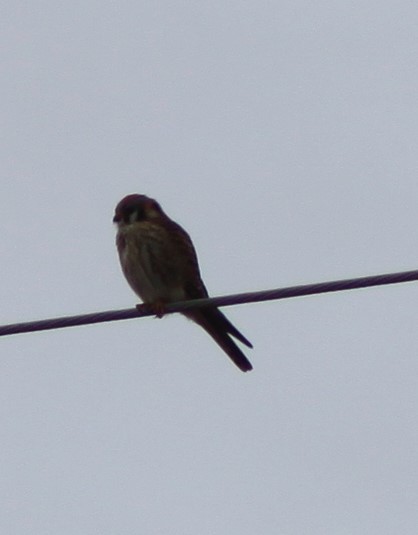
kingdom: Animalia
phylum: Chordata
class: Aves
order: Falconiformes
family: Falconidae
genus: Falco
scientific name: Falco sparverius
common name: American kestrel
